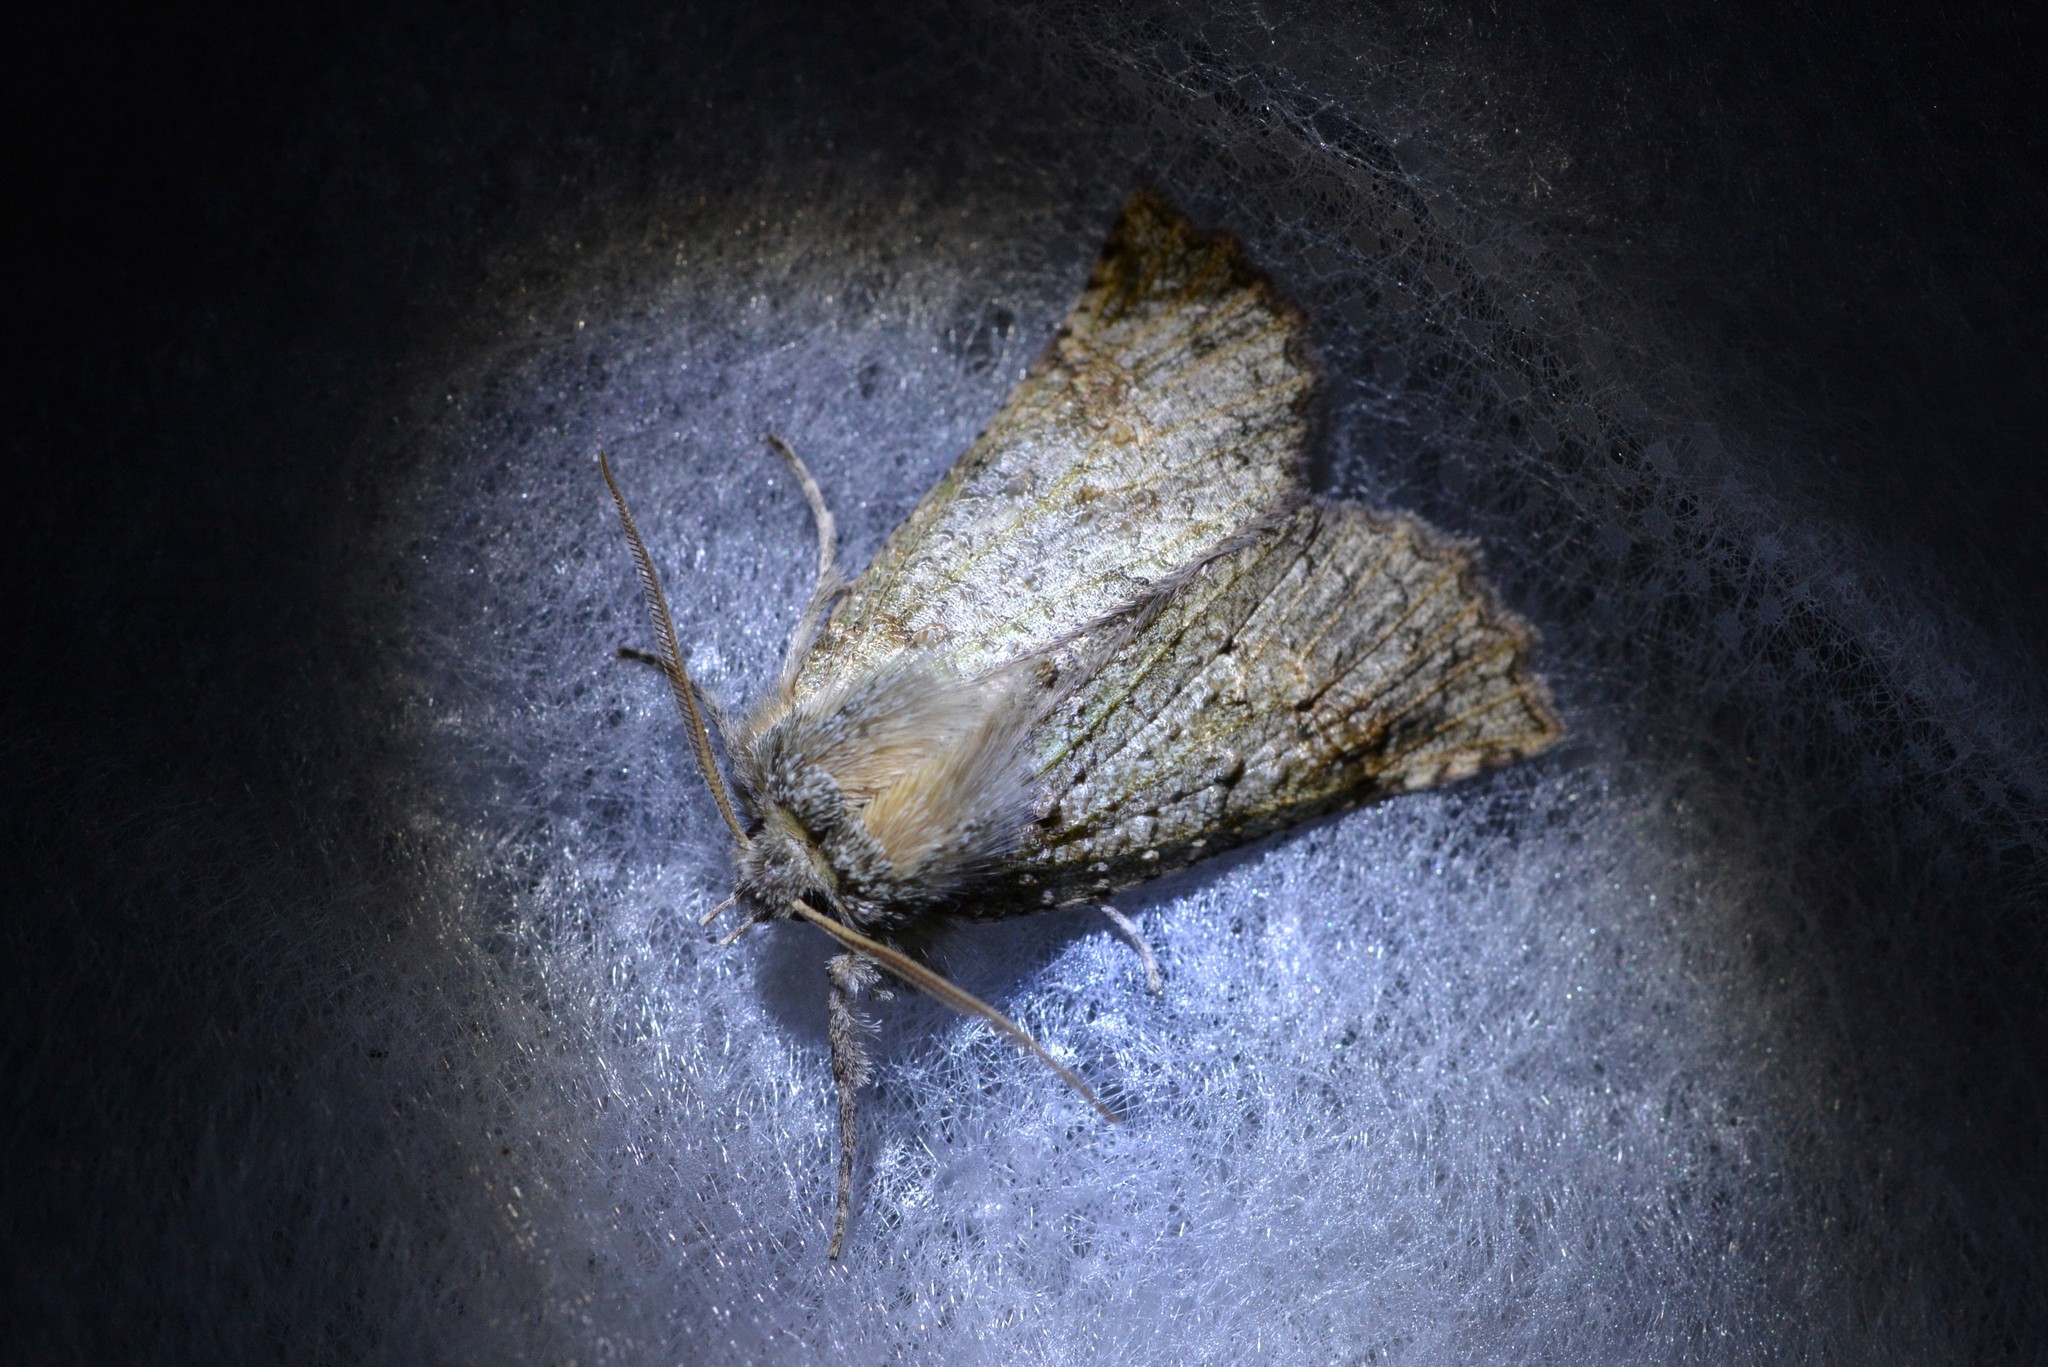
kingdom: Animalia
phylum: Arthropoda
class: Insecta
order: Lepidoptera
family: Geometridae
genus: Declana
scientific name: Declana floccosa
